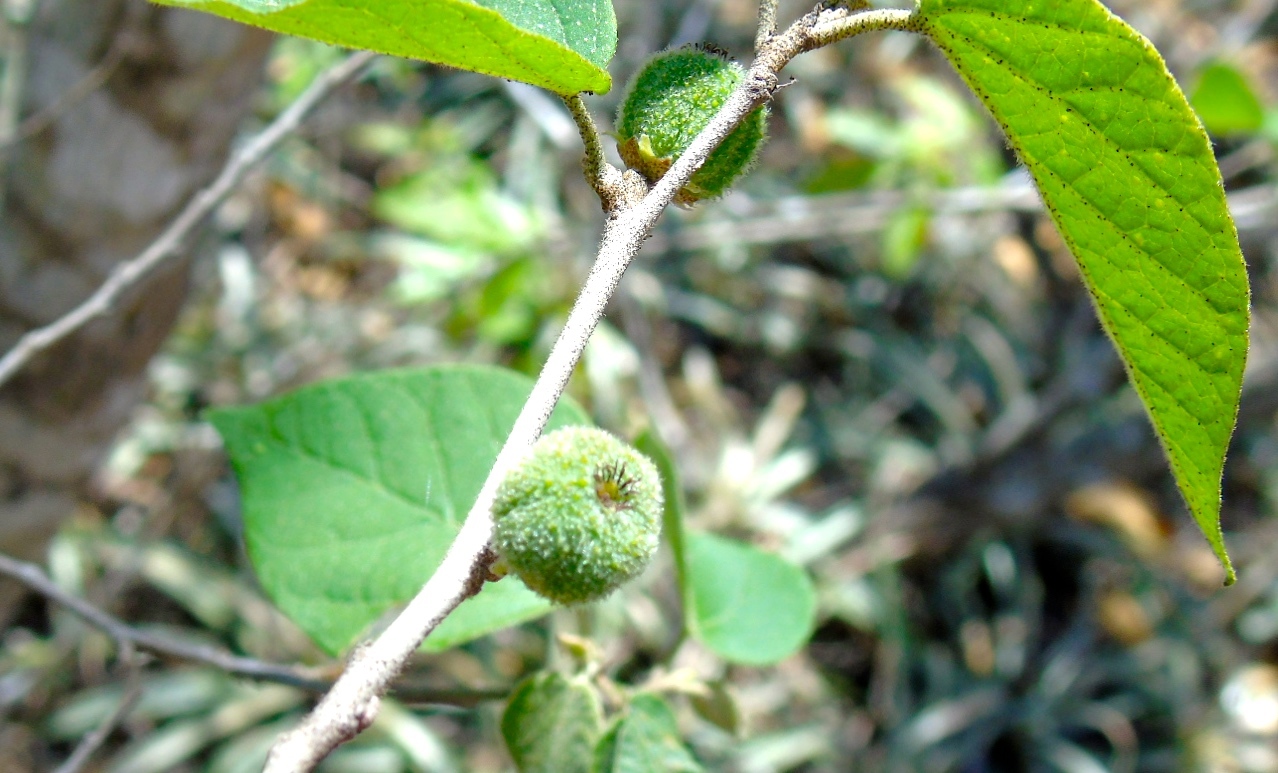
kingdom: Plantae
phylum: Tracheophyta
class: Magnoliopsida
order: Malpighiales
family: Euphorbiaceae
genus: Croton
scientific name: Croton lindquistii
